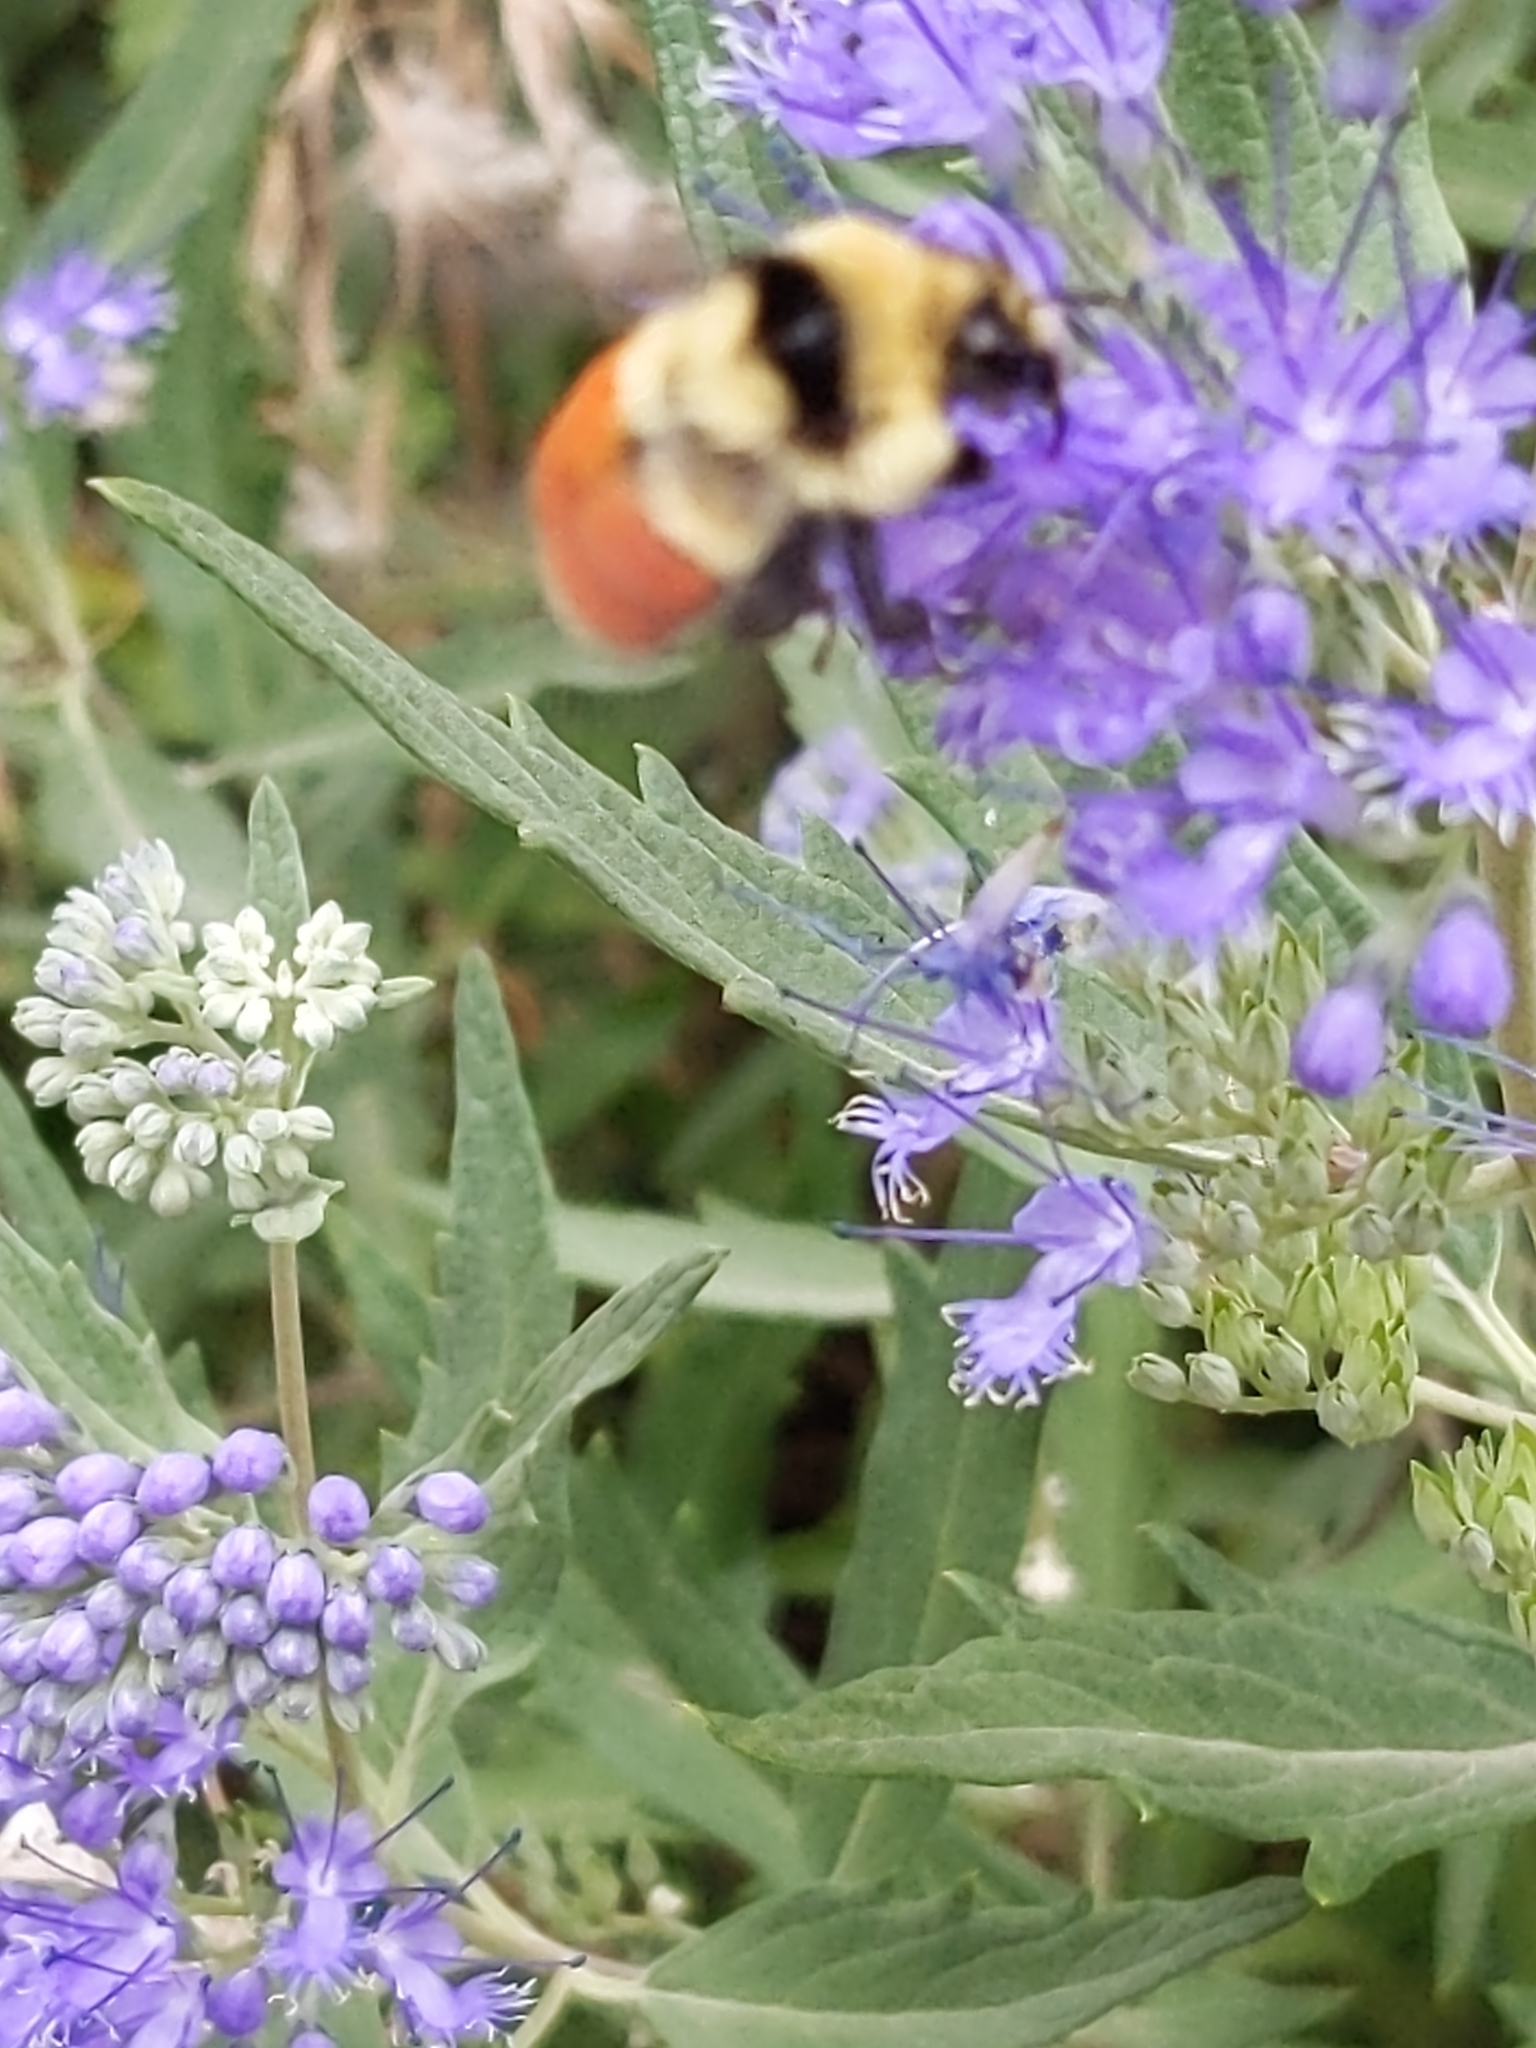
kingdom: Animalia
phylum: Arthropoda
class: Insecta
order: Hymenoptera
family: Apidae
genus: Bombus
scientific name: Bombus huntii
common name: Hunt bumble bee
